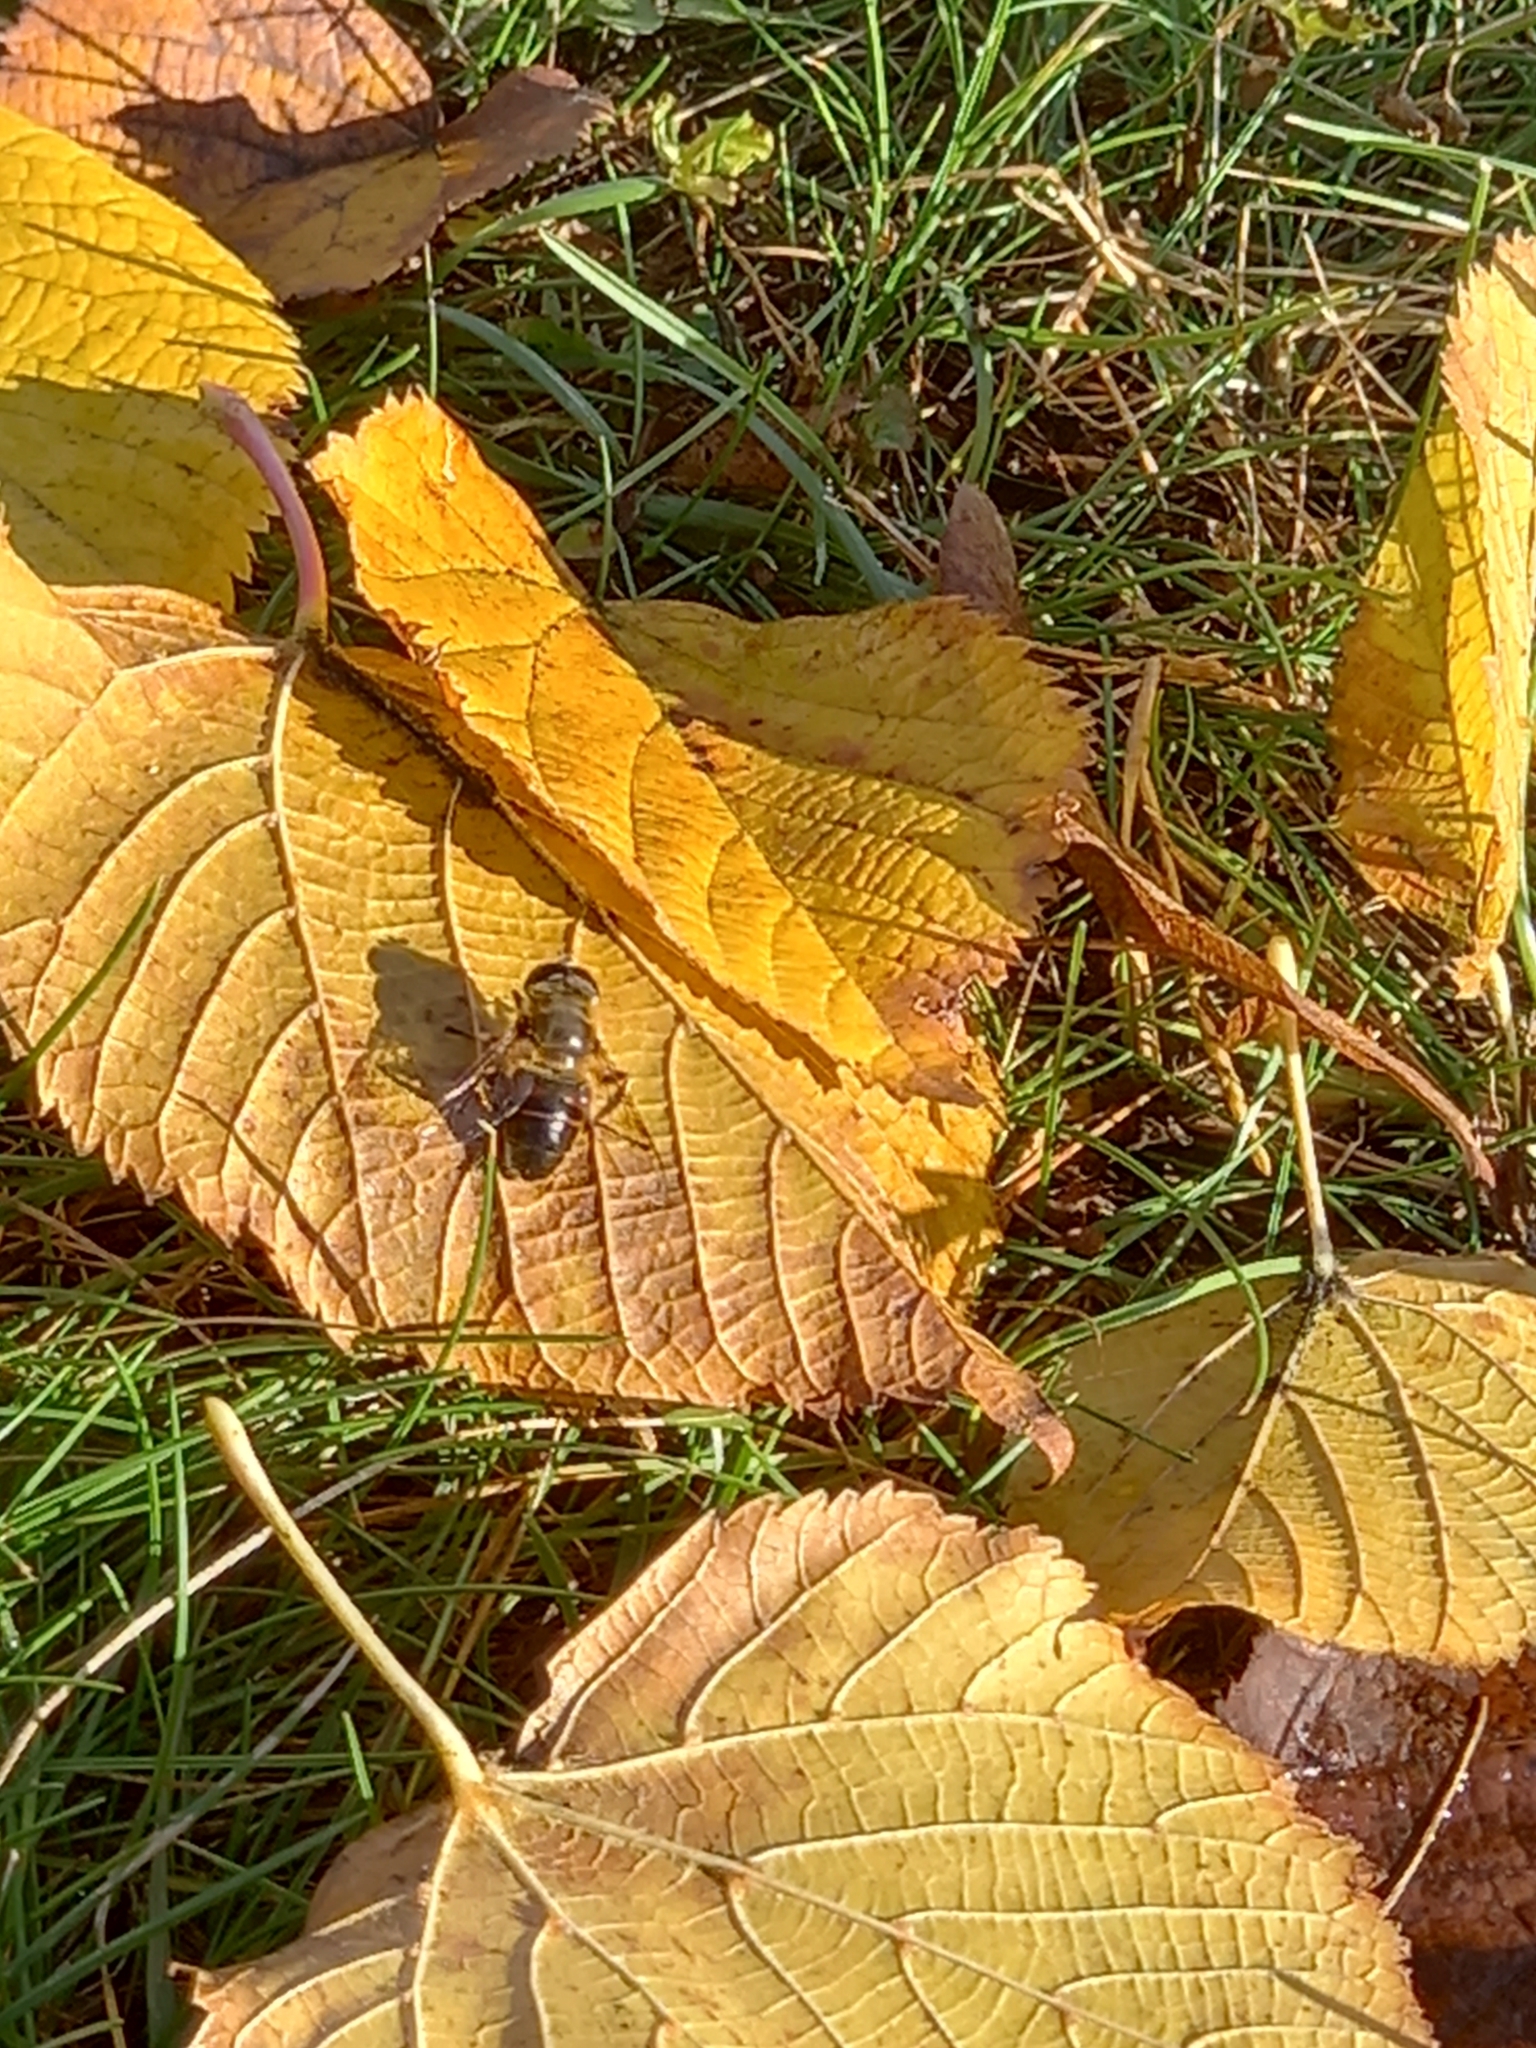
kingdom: Animalia
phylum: Arthropoda
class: Insecta
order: Diptera
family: Syrphidae
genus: Eristalis
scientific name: Eristalis tenax
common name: Drone fly
